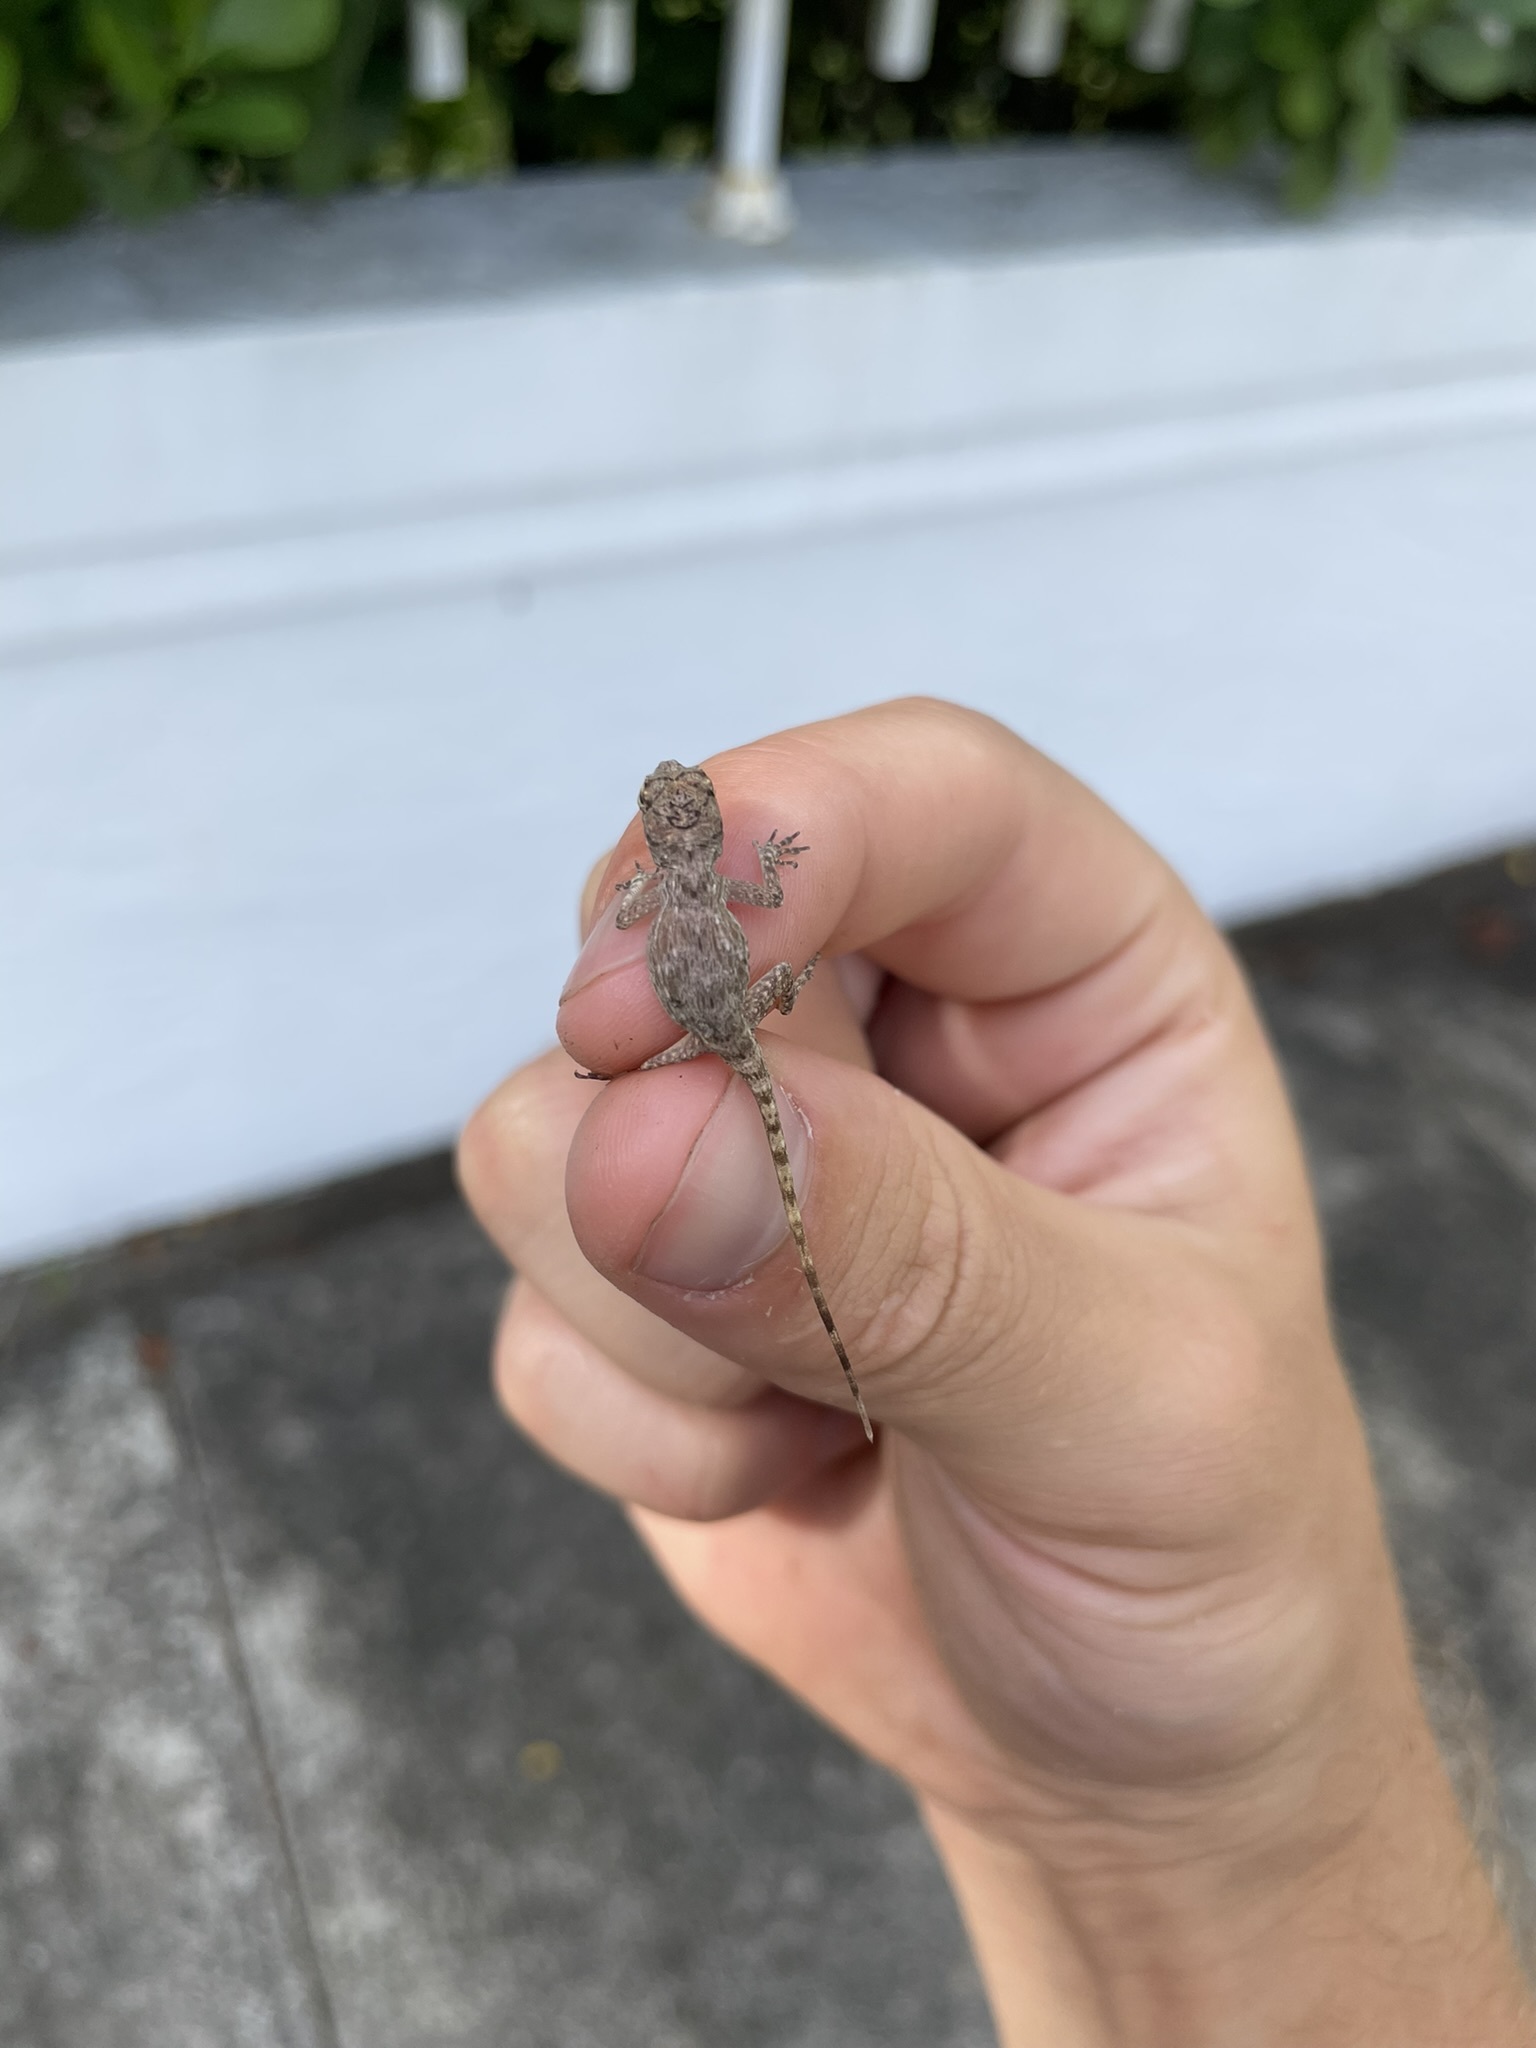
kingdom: Animalia
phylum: Chordata
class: Squamata
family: Dactyloidae
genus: Anolis
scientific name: Anolis distichus
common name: Bark anole
